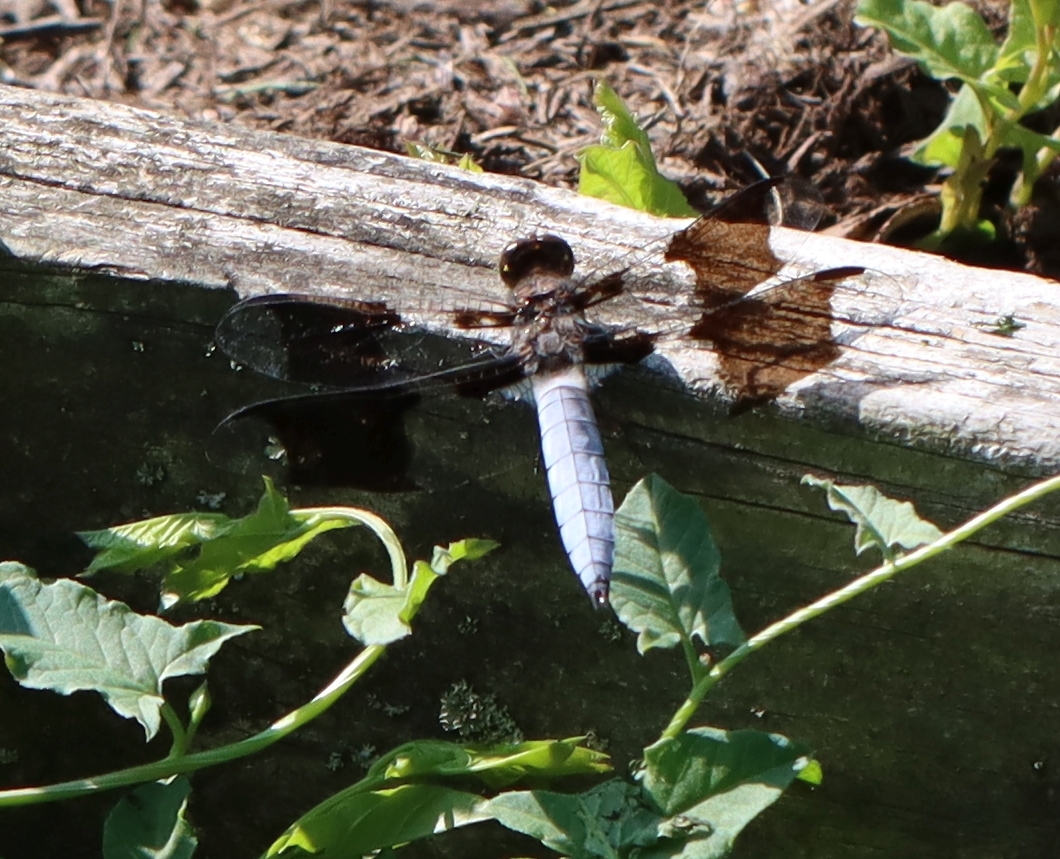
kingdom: Animalia
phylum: Arthropoda
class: Insecta
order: Odonata
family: Libellulidae
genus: Plathemis
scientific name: Plathemis lydia
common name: Common whitetail
